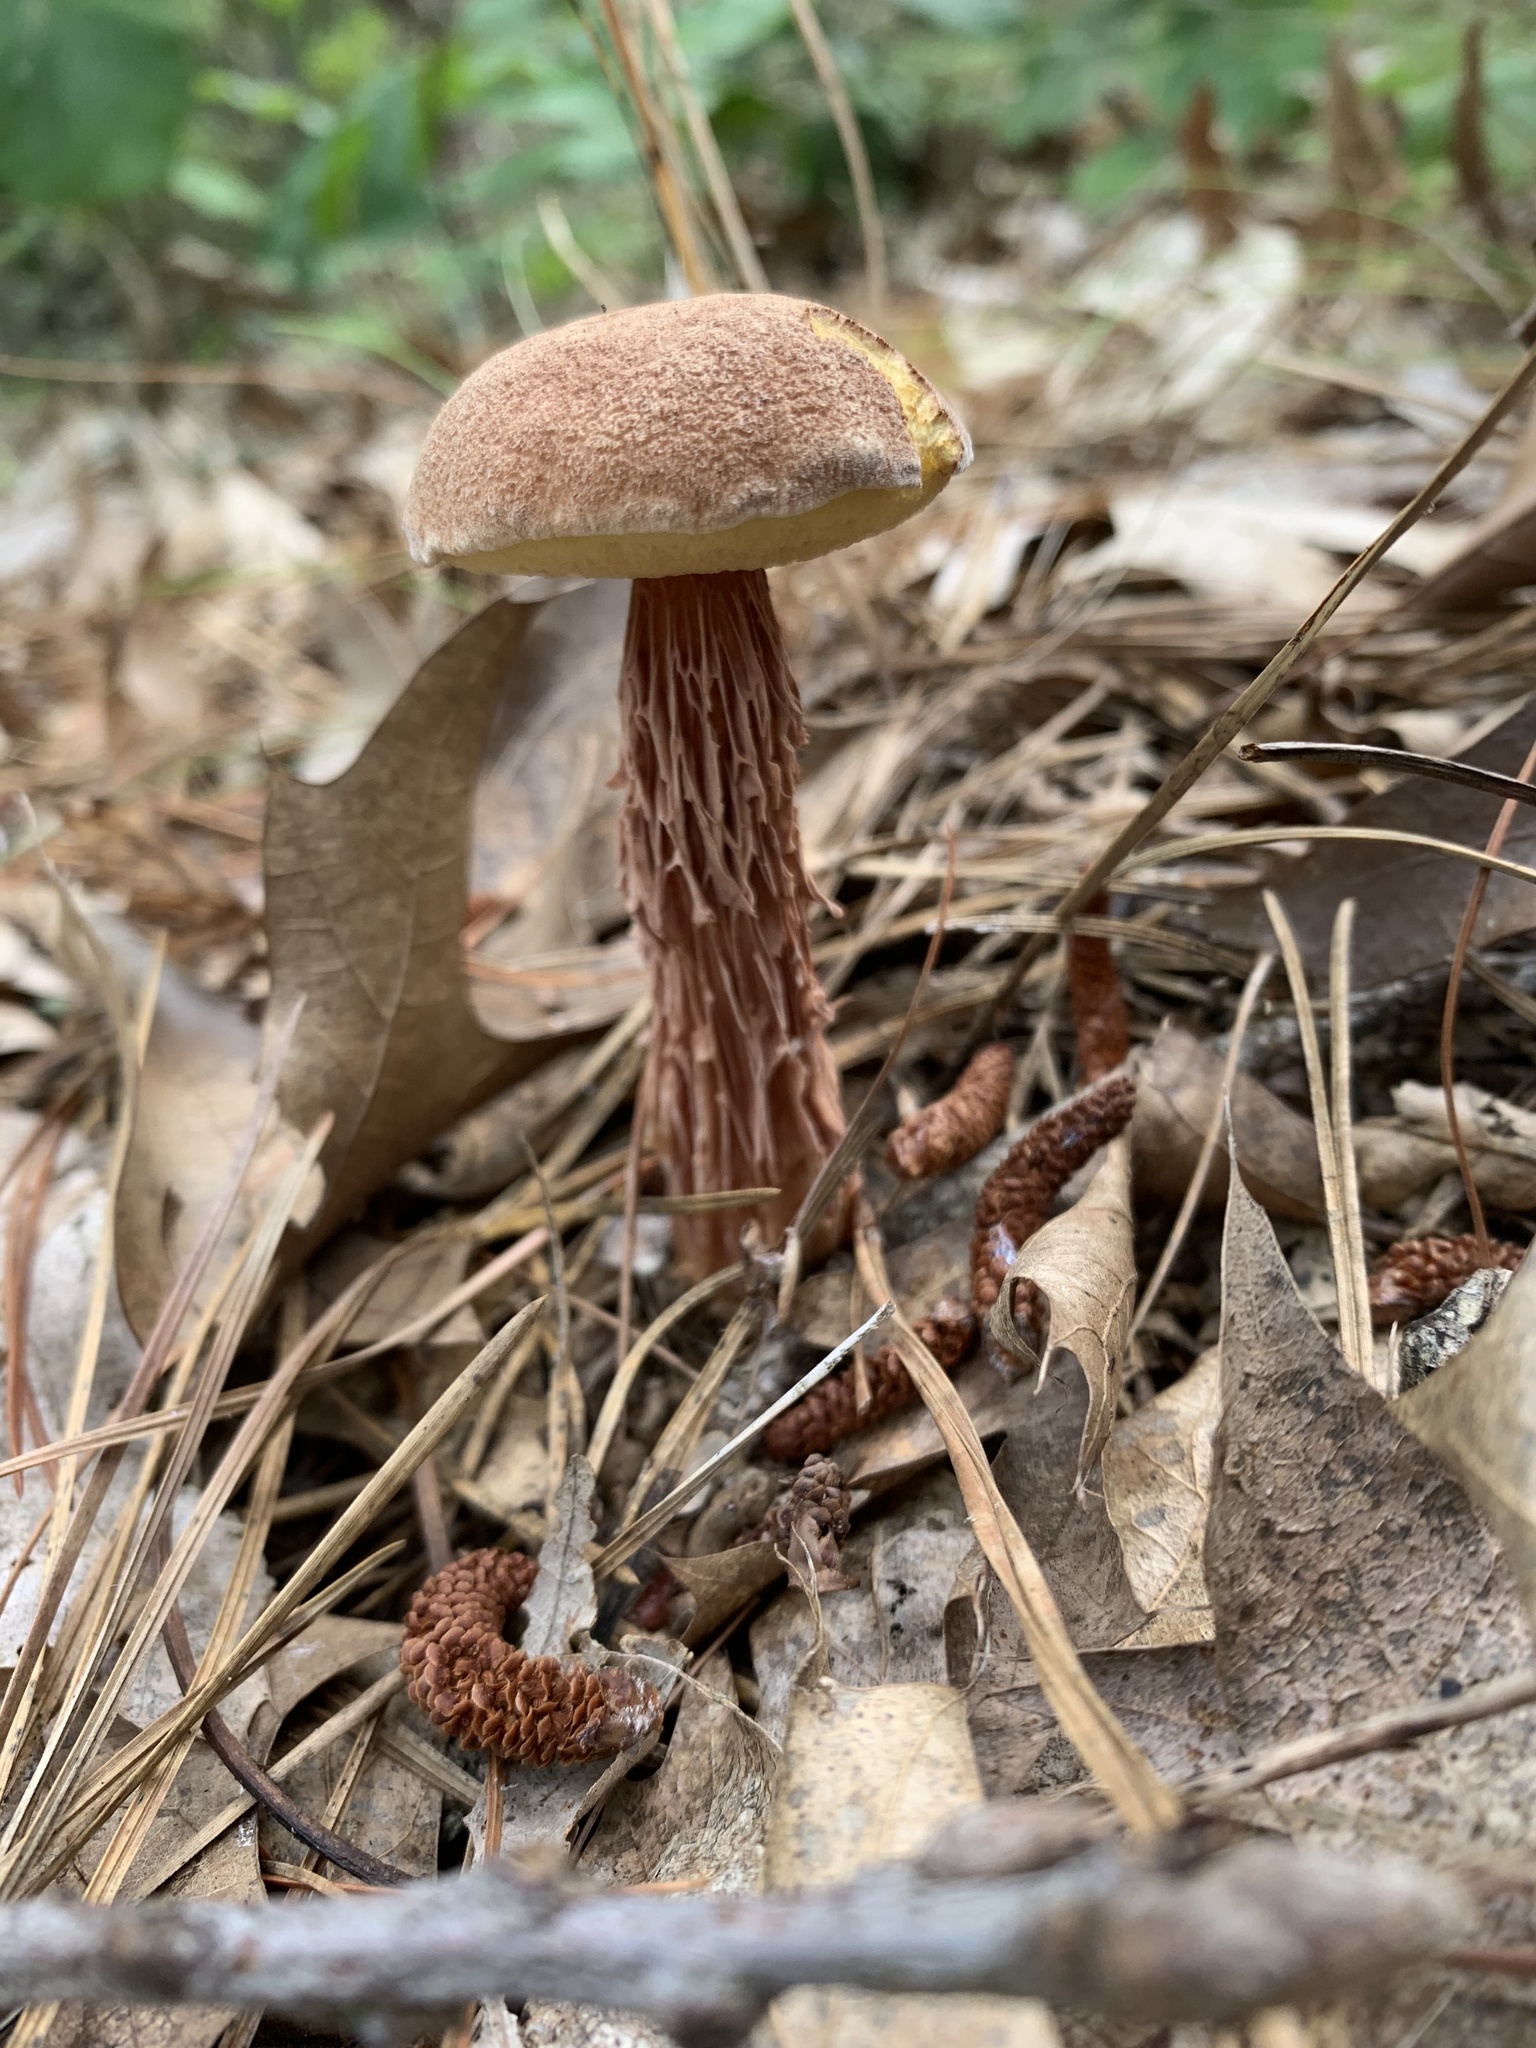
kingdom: Fungi
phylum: Basidiomycota
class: Agaricomycetes
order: Boletales
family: Boletaceae
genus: Aureoboletus
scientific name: Aureoboletus russellii
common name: Russell's bolete
